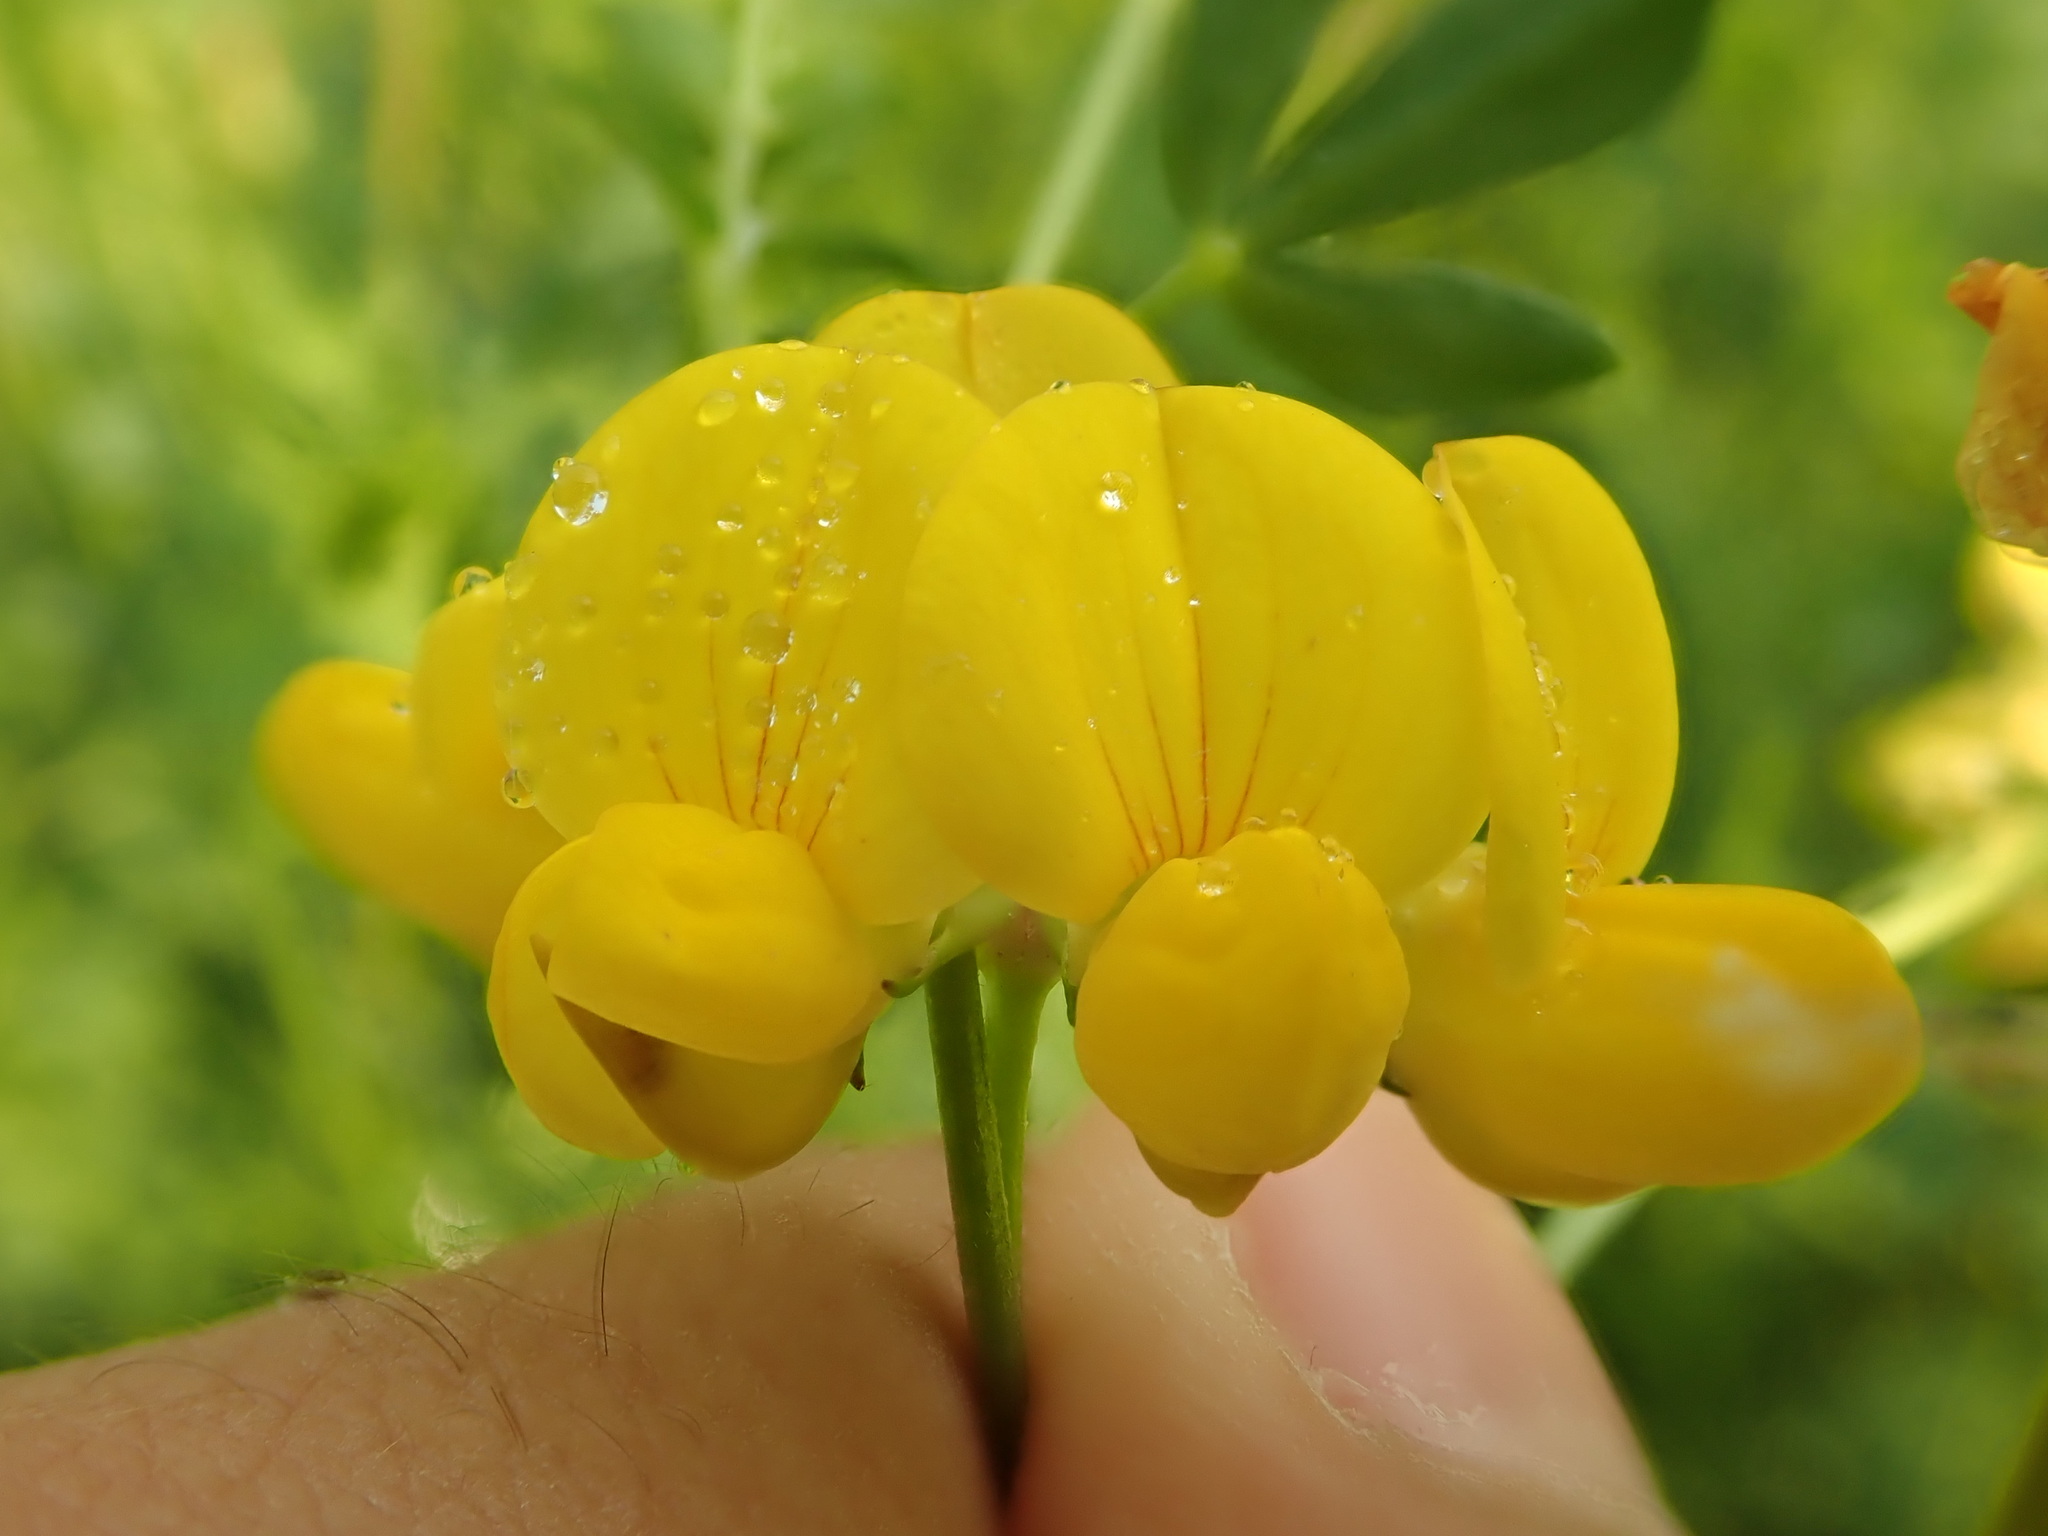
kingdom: Plantae
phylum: Tracheophyta
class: Magnoliopsida
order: Fabales
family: Fabaceae
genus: Lotus
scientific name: Lotus corniculatus
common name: Common bird's-foot-trefoil
